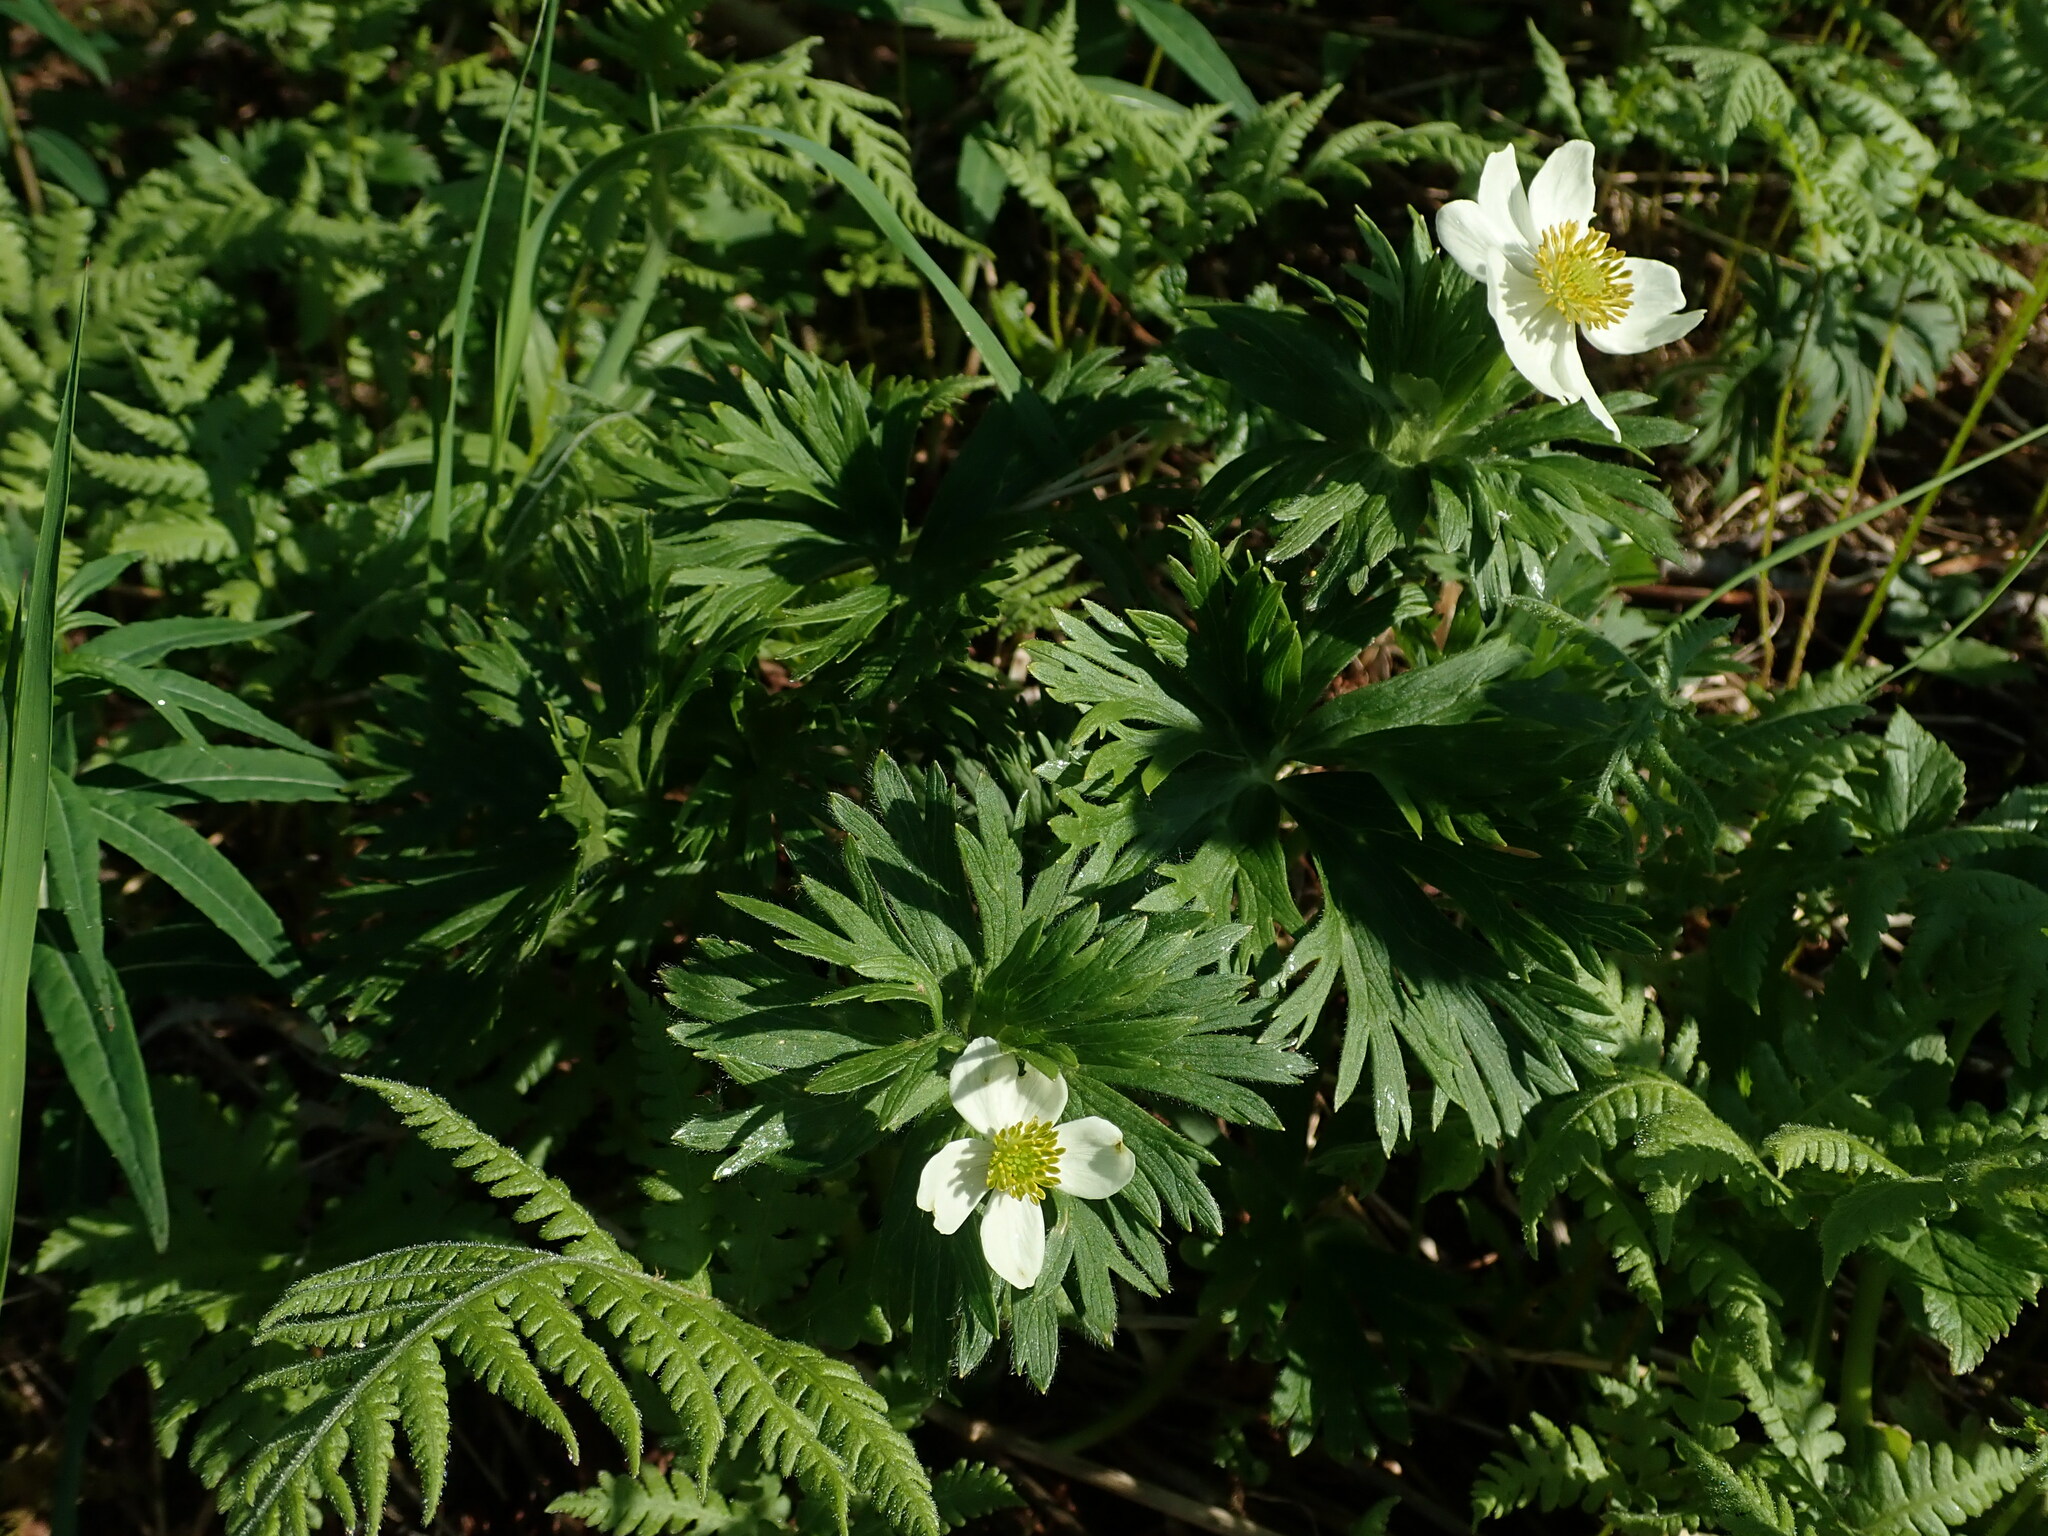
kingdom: Plantae
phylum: Tracheophyta
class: Magnoliopsida
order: Ranunculales
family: Ranunculaceae
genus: Anemonastrum
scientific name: Anemonastrum narcissiflorum
